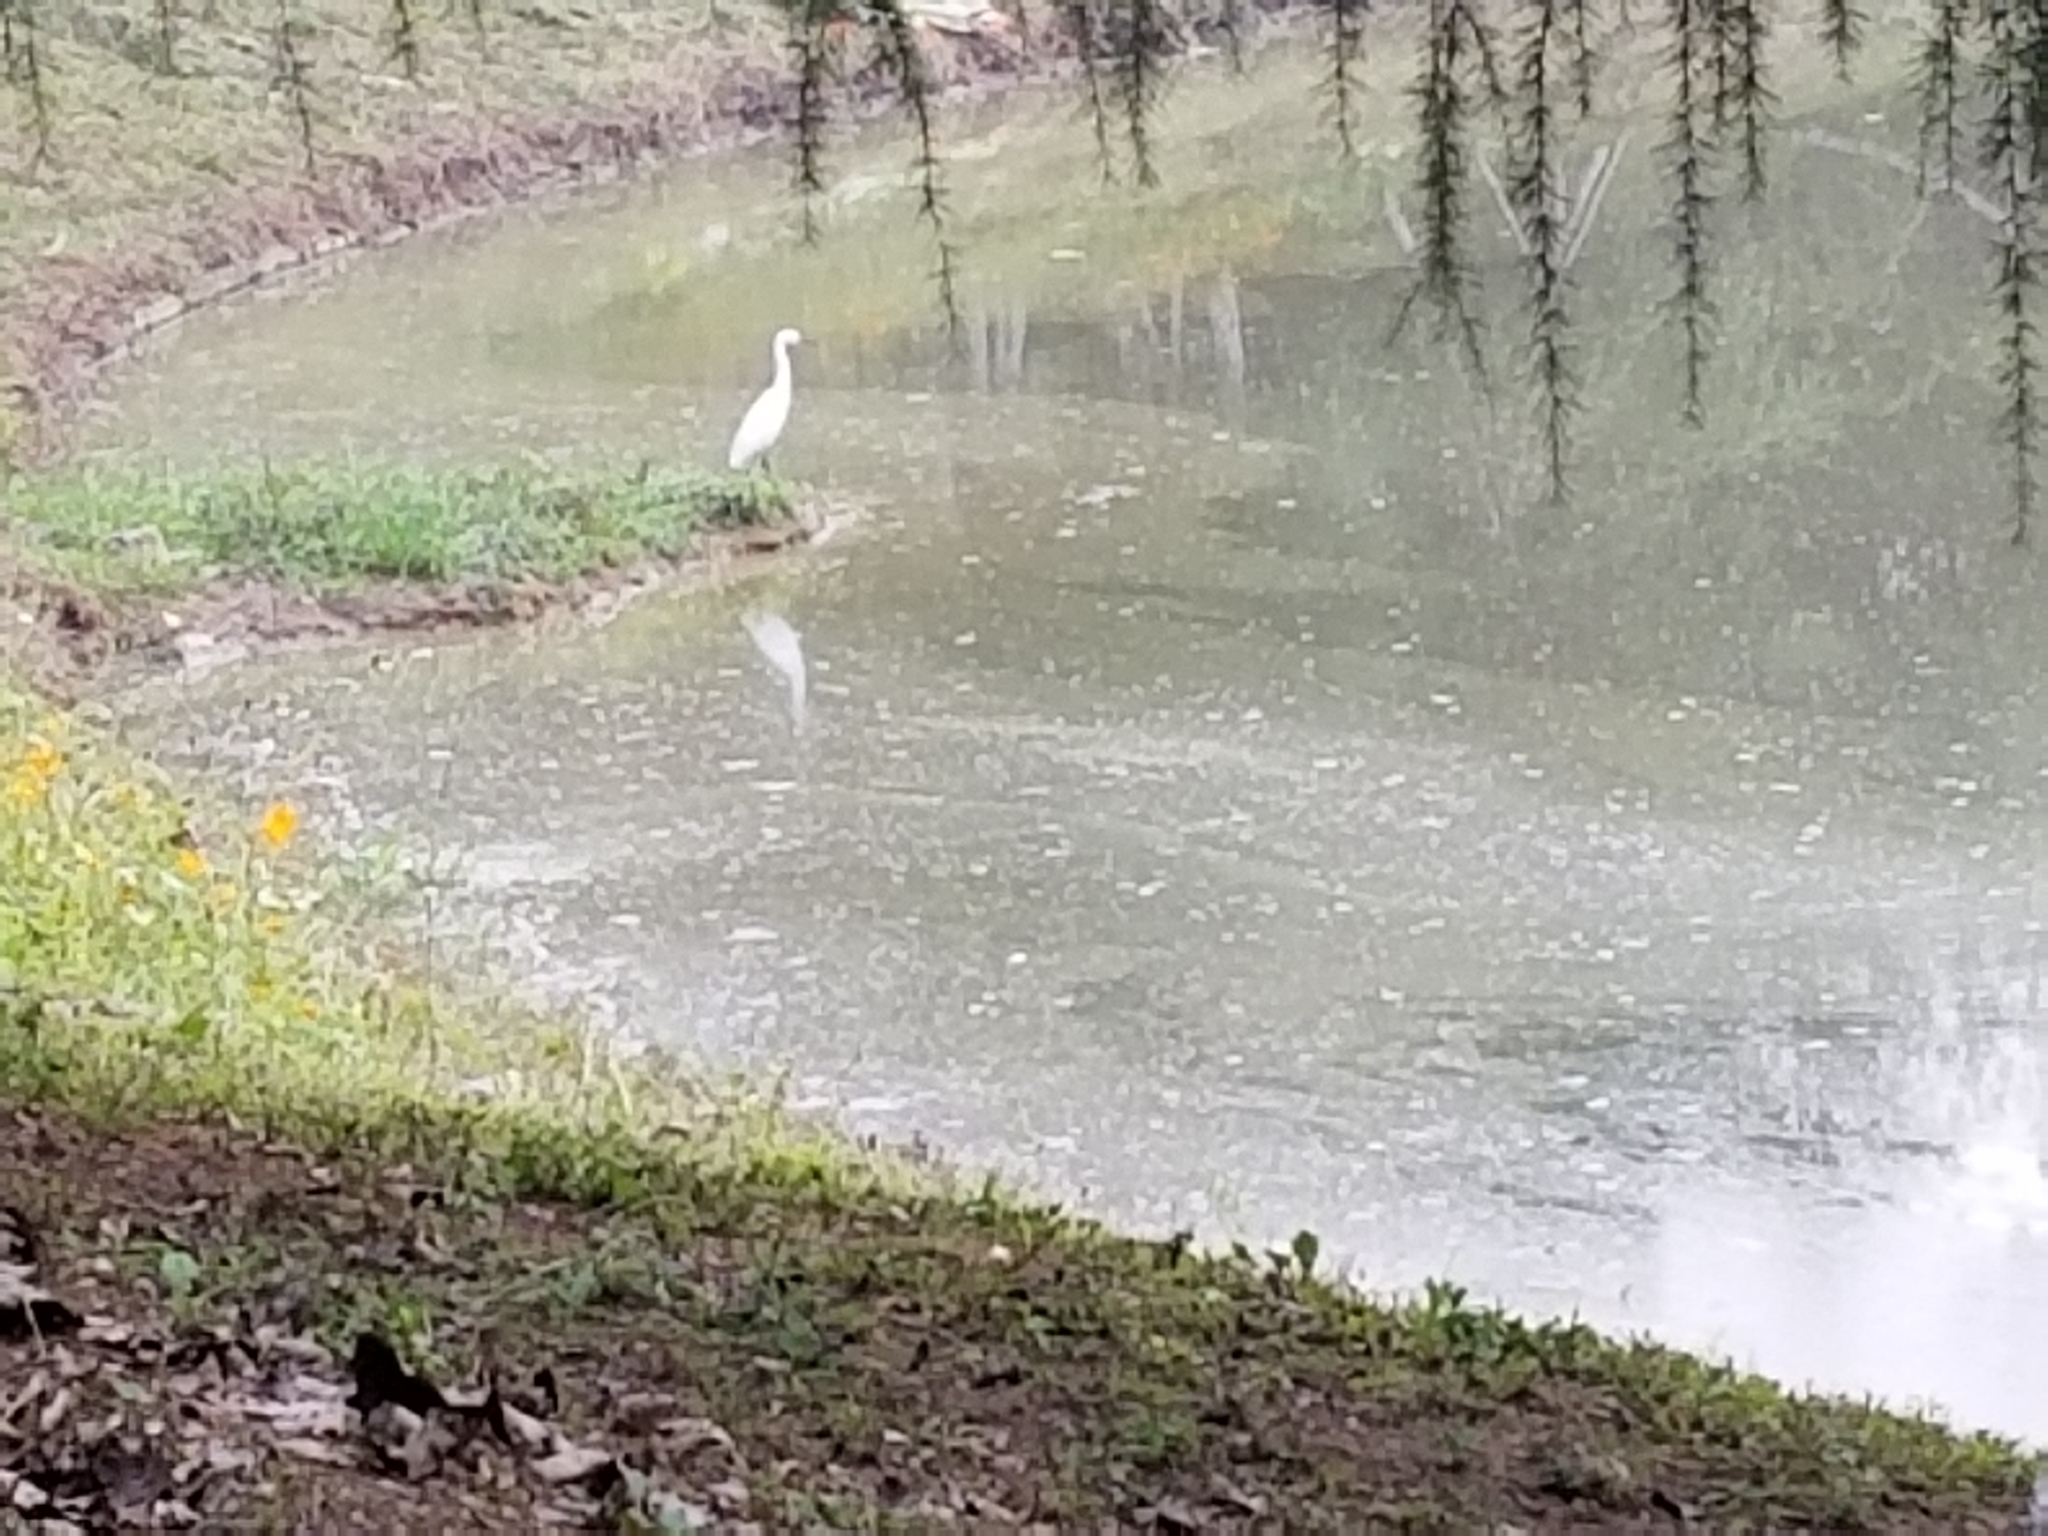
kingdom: Animalia
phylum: Chordata
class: Aves
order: Pelecaniformes
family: Ardeidae
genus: Egretta
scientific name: Egretta garzetta
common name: Little egret
